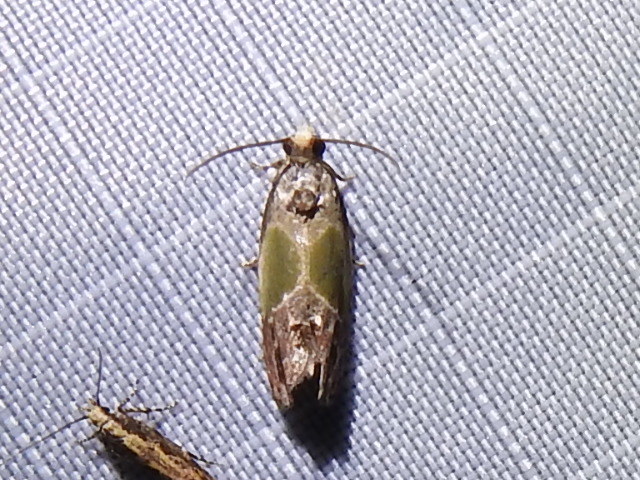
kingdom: Animalia
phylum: Arthropoda
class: Insecta
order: Lepidoptera
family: Tortricidae
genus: Eumarozia
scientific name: Eumarozia malachitana
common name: Sculptured moth
